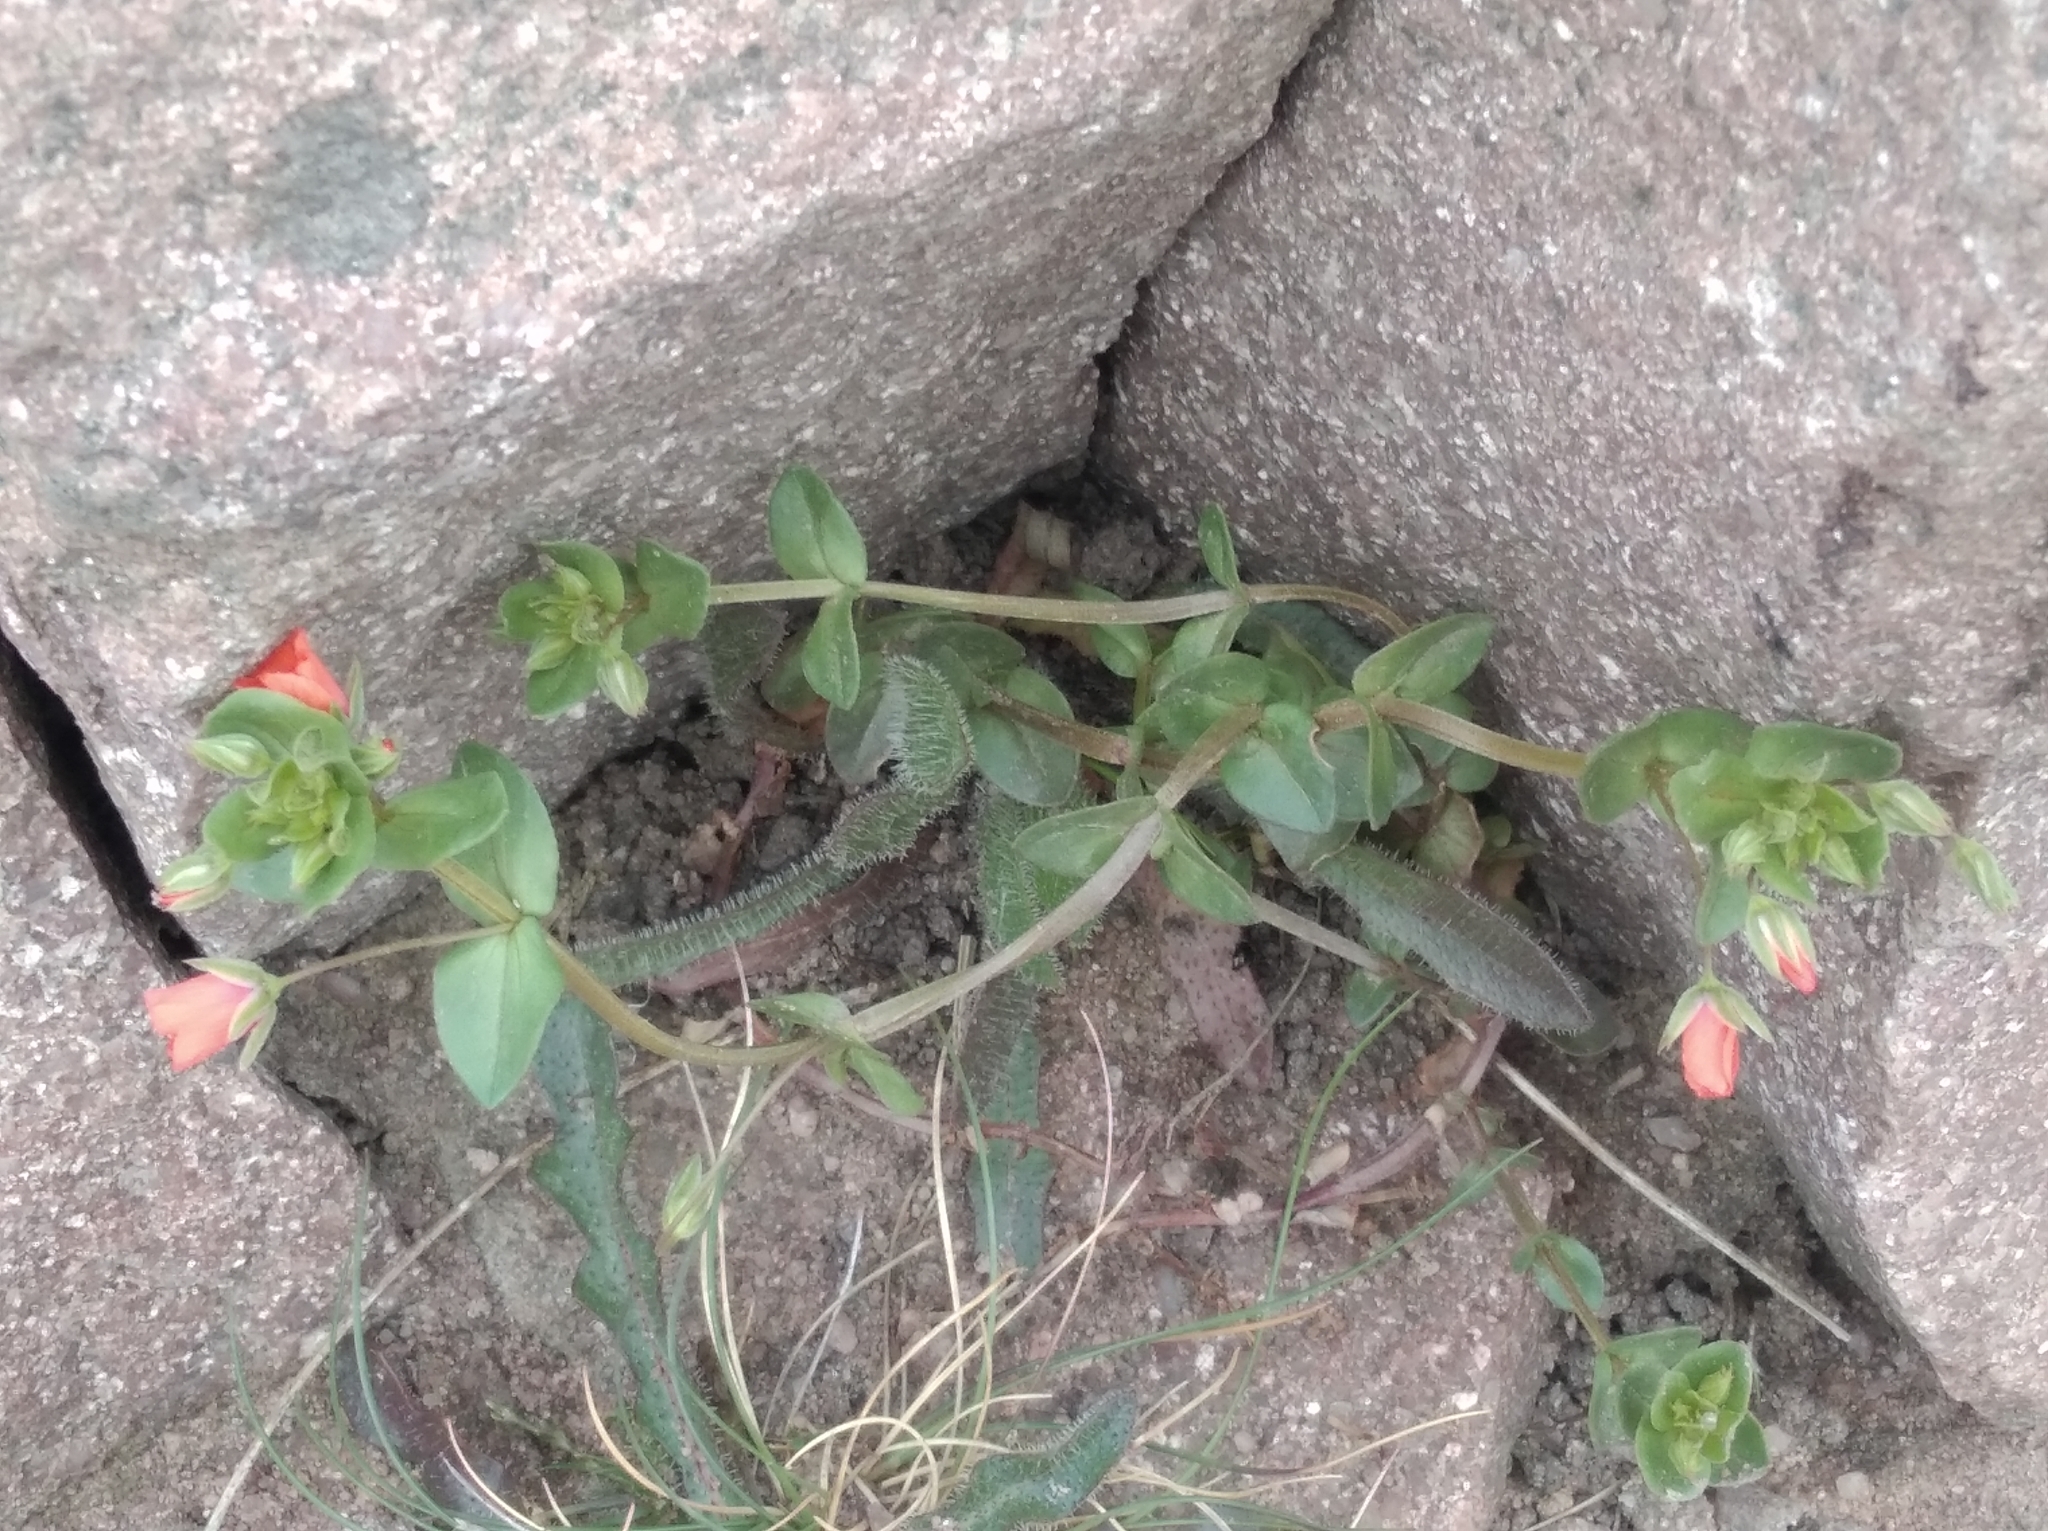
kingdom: Plantae
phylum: Tracheophyta
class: Magnoliopsida
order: Ericales
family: Primulaceae
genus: Lysimachia
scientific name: Lysimachia arvensis
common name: Scarlet pimpernel
